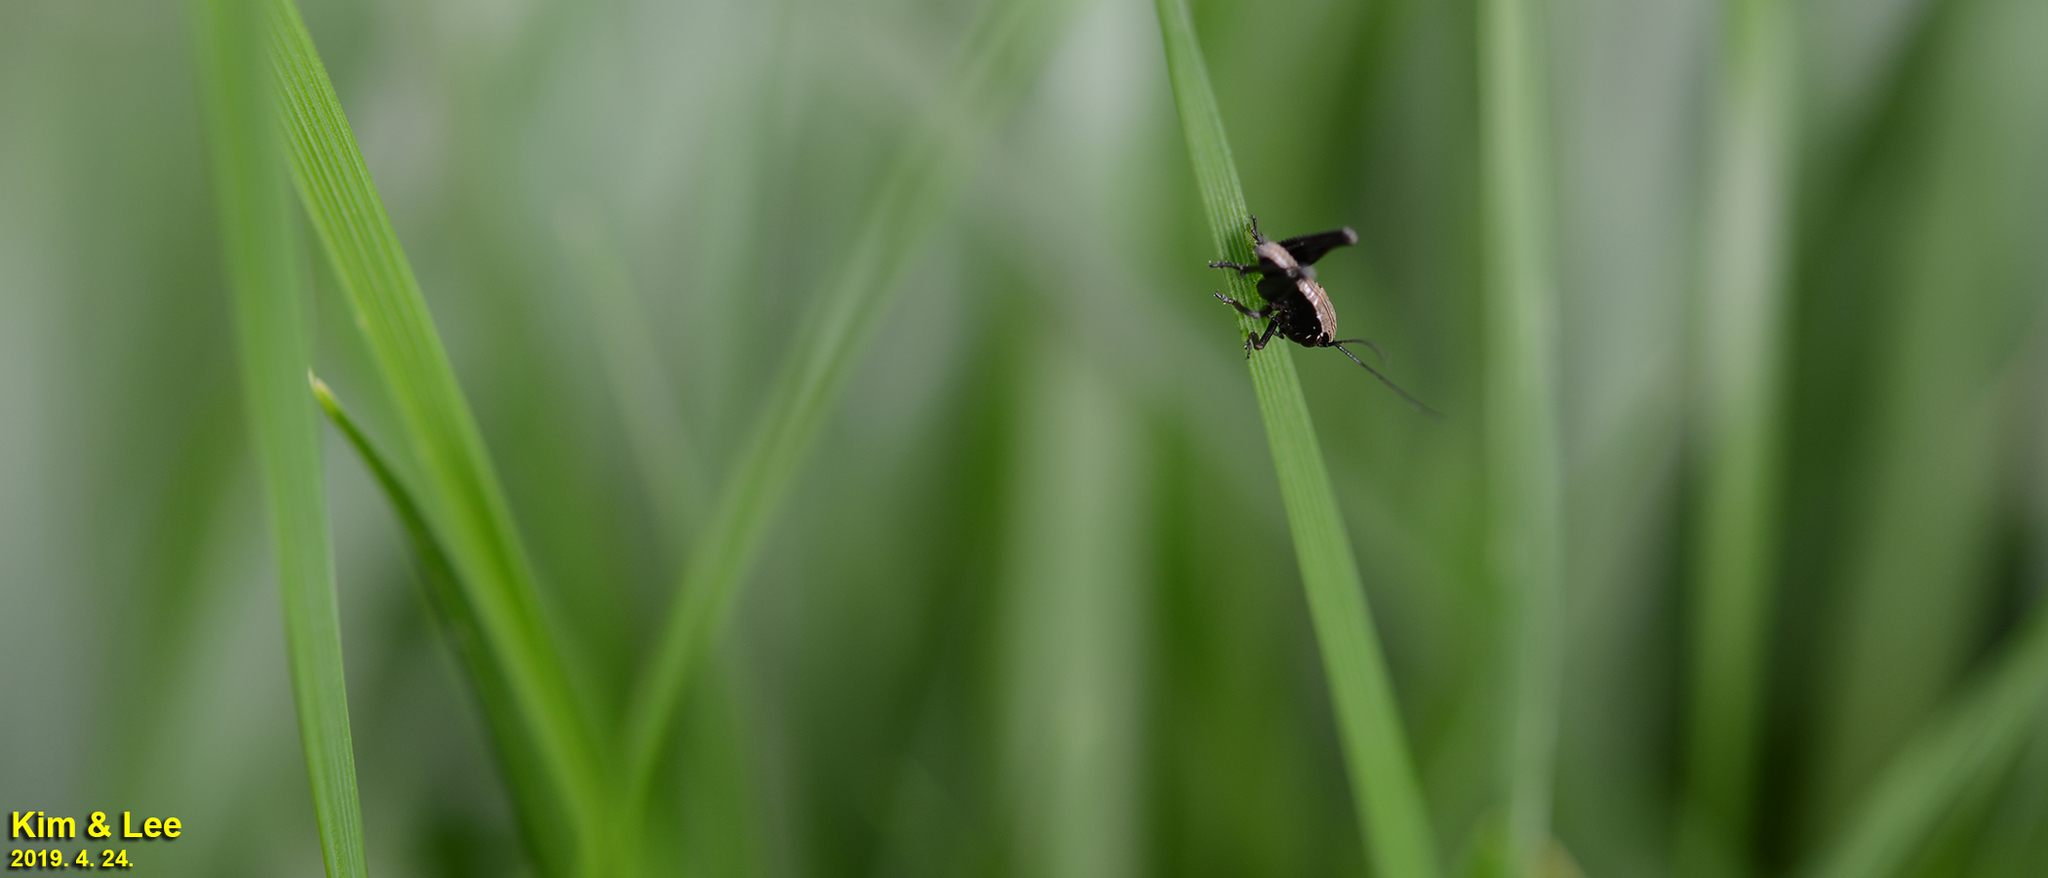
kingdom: Animalia
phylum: Arthropoda
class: Insecta
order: Orthoptera
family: Tettigoniidae
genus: Chizuella
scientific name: Chizuella bonneti
